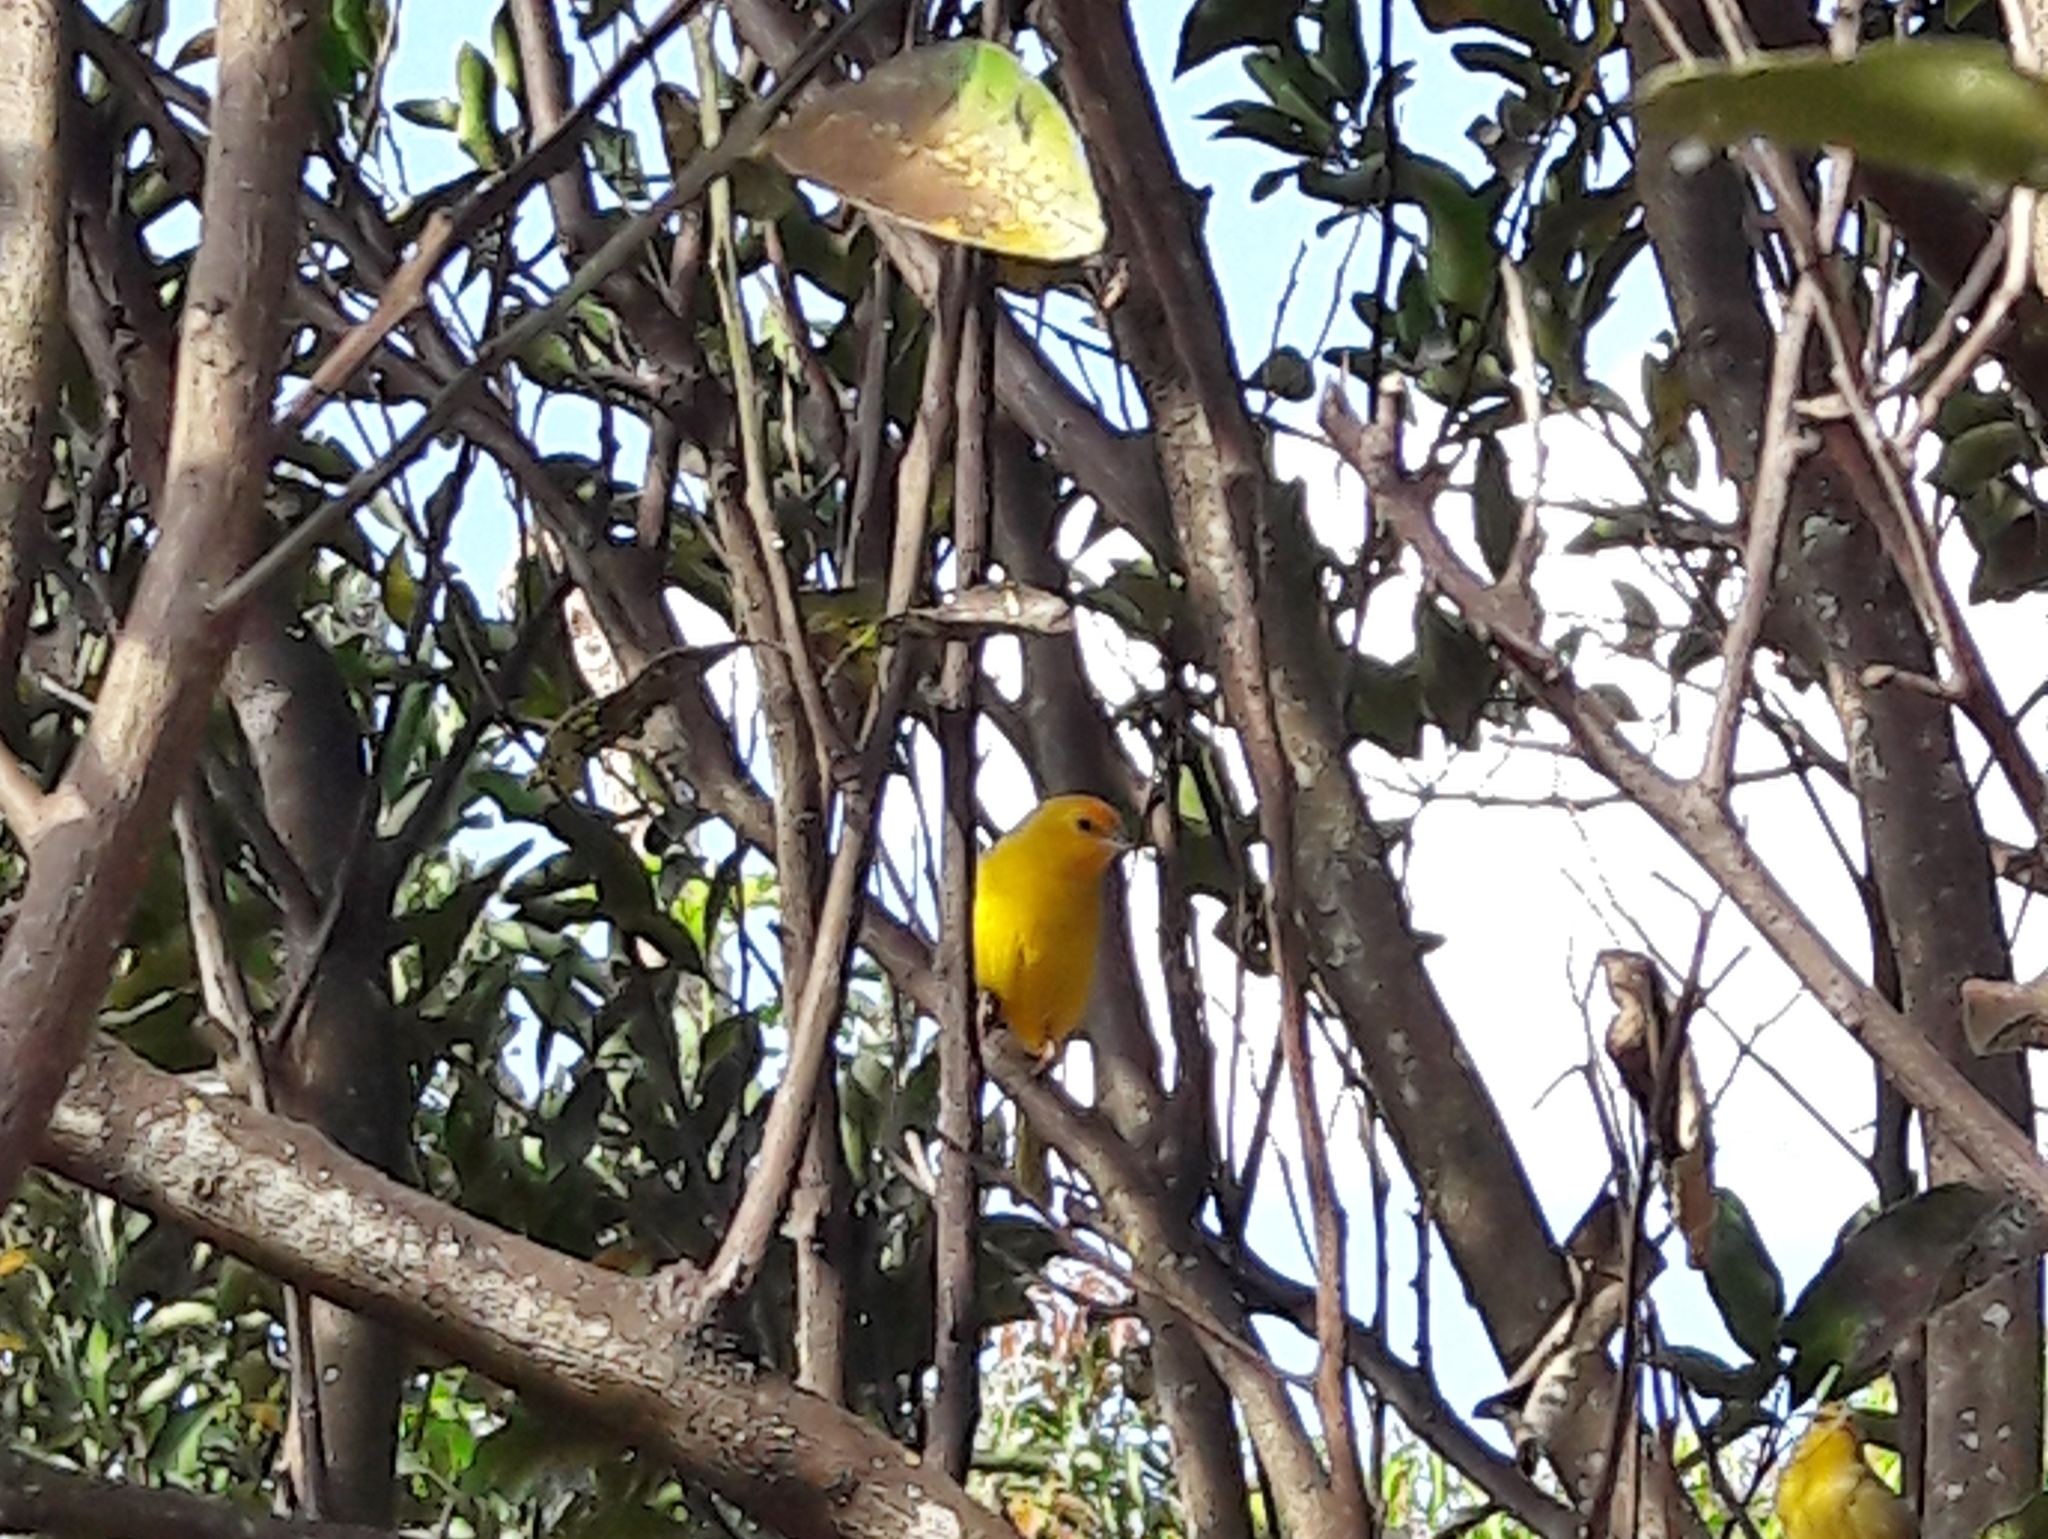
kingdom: Animalia
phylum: Chordata
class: Aves
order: Passeriformes
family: Thraupidae
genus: Sicalis
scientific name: Sicalis flaveola
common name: Saffron finch
